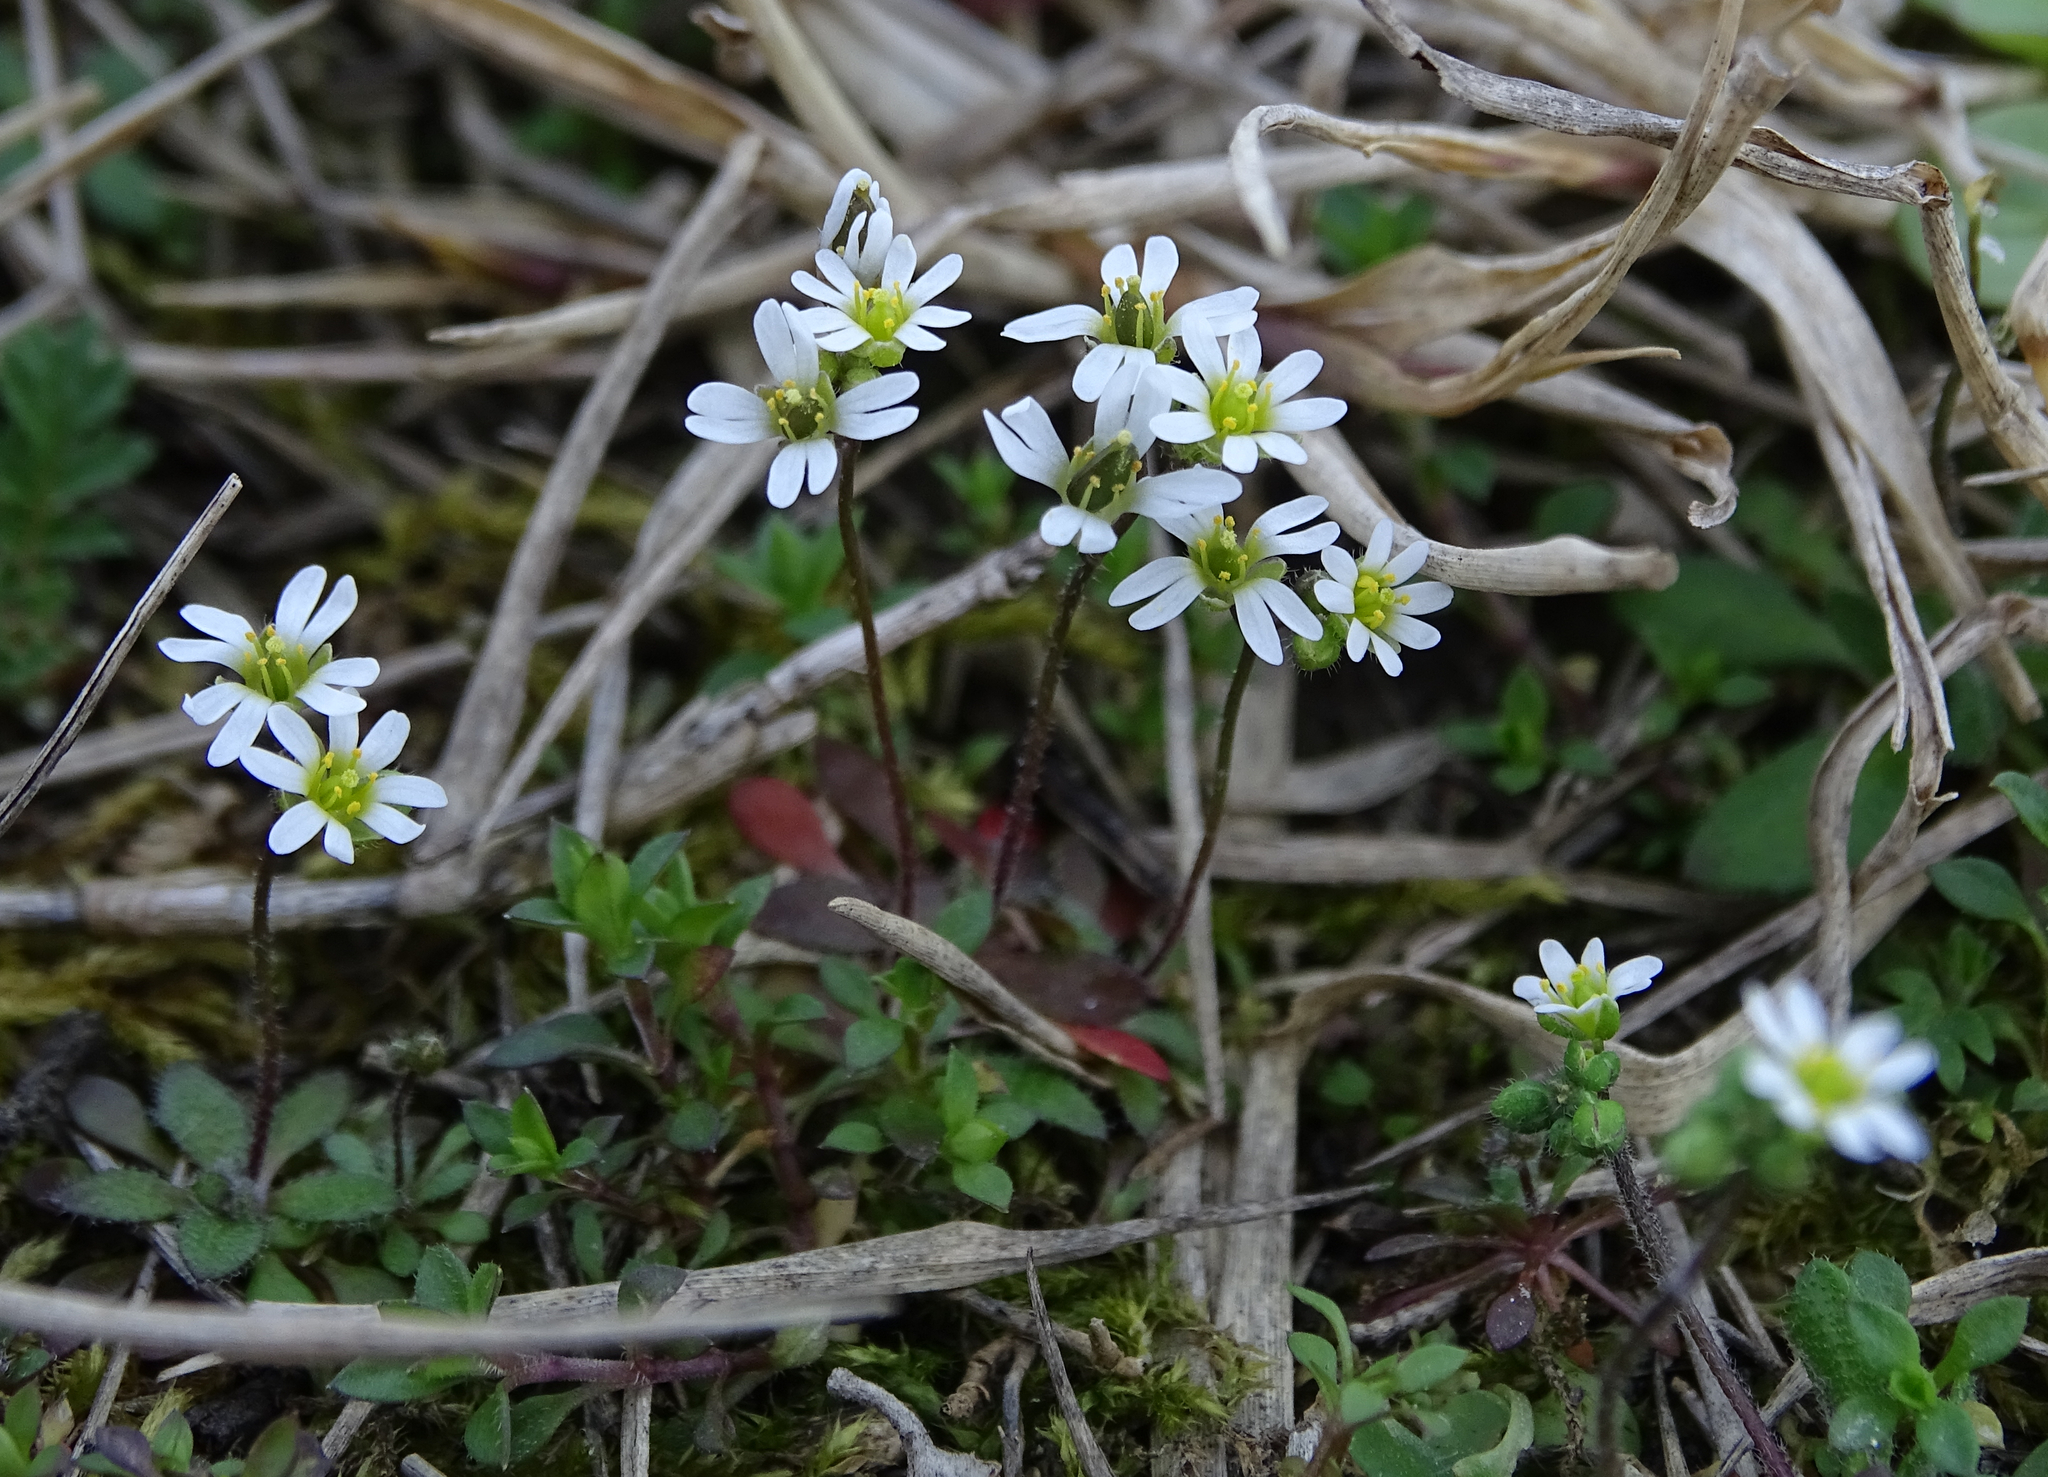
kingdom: Plantae
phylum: Tracheophyta
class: Magnoliopsida
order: Brassicales
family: Brassicaceae
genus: Draba
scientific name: Draba verna
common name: Spring draba
